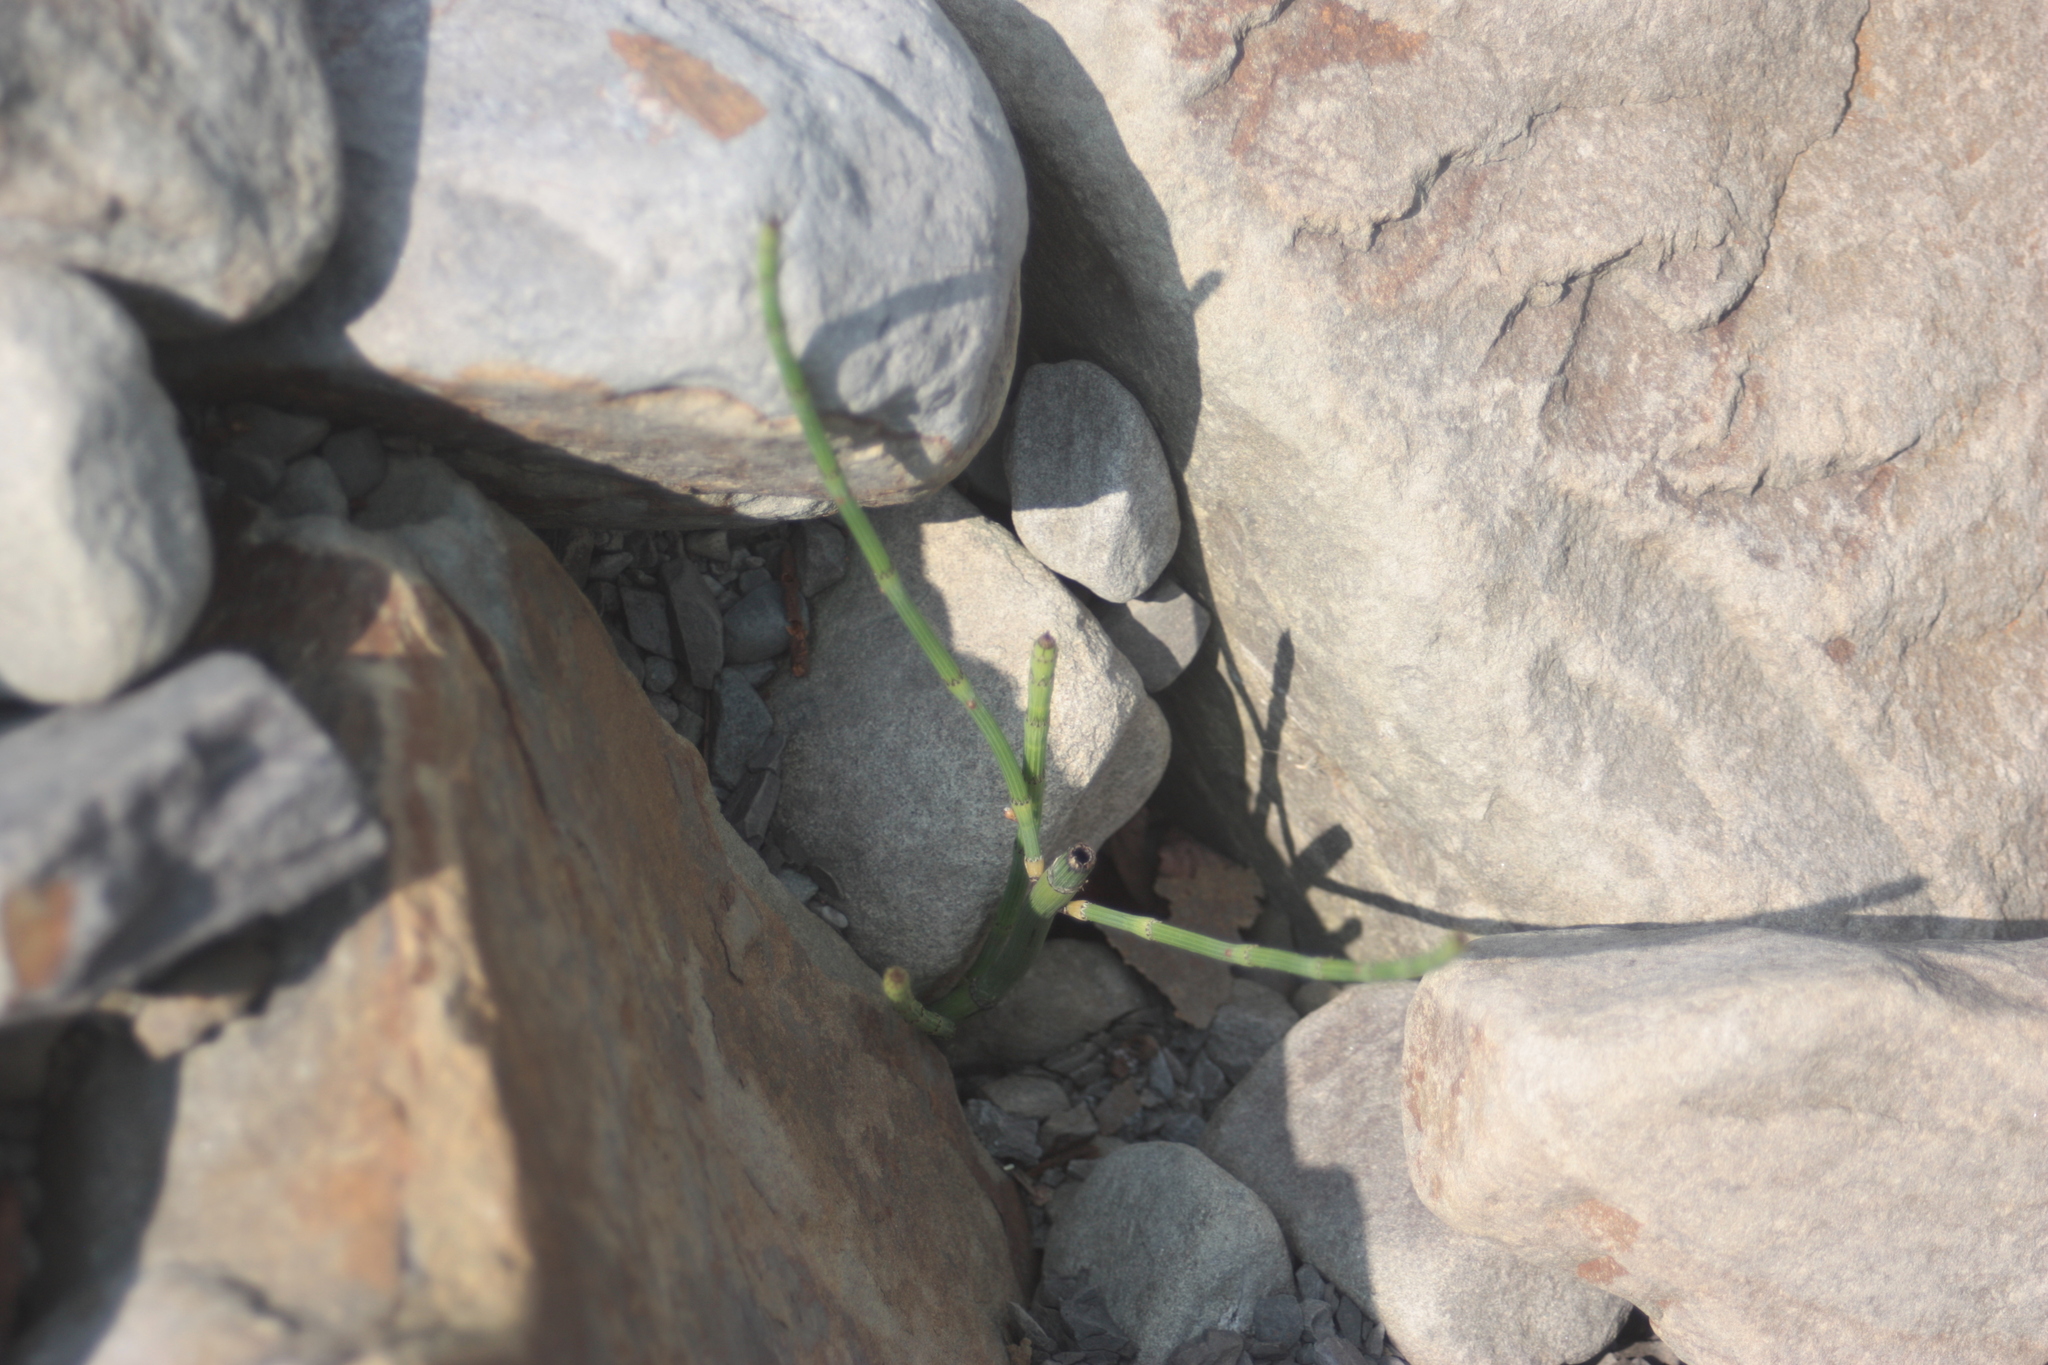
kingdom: Plantae
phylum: Tracheophyta
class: Polypodiopsida
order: Equisetales
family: Equisetaceae
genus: Equisetum
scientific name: Equisetum ramosissimum
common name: Branched horsetail
